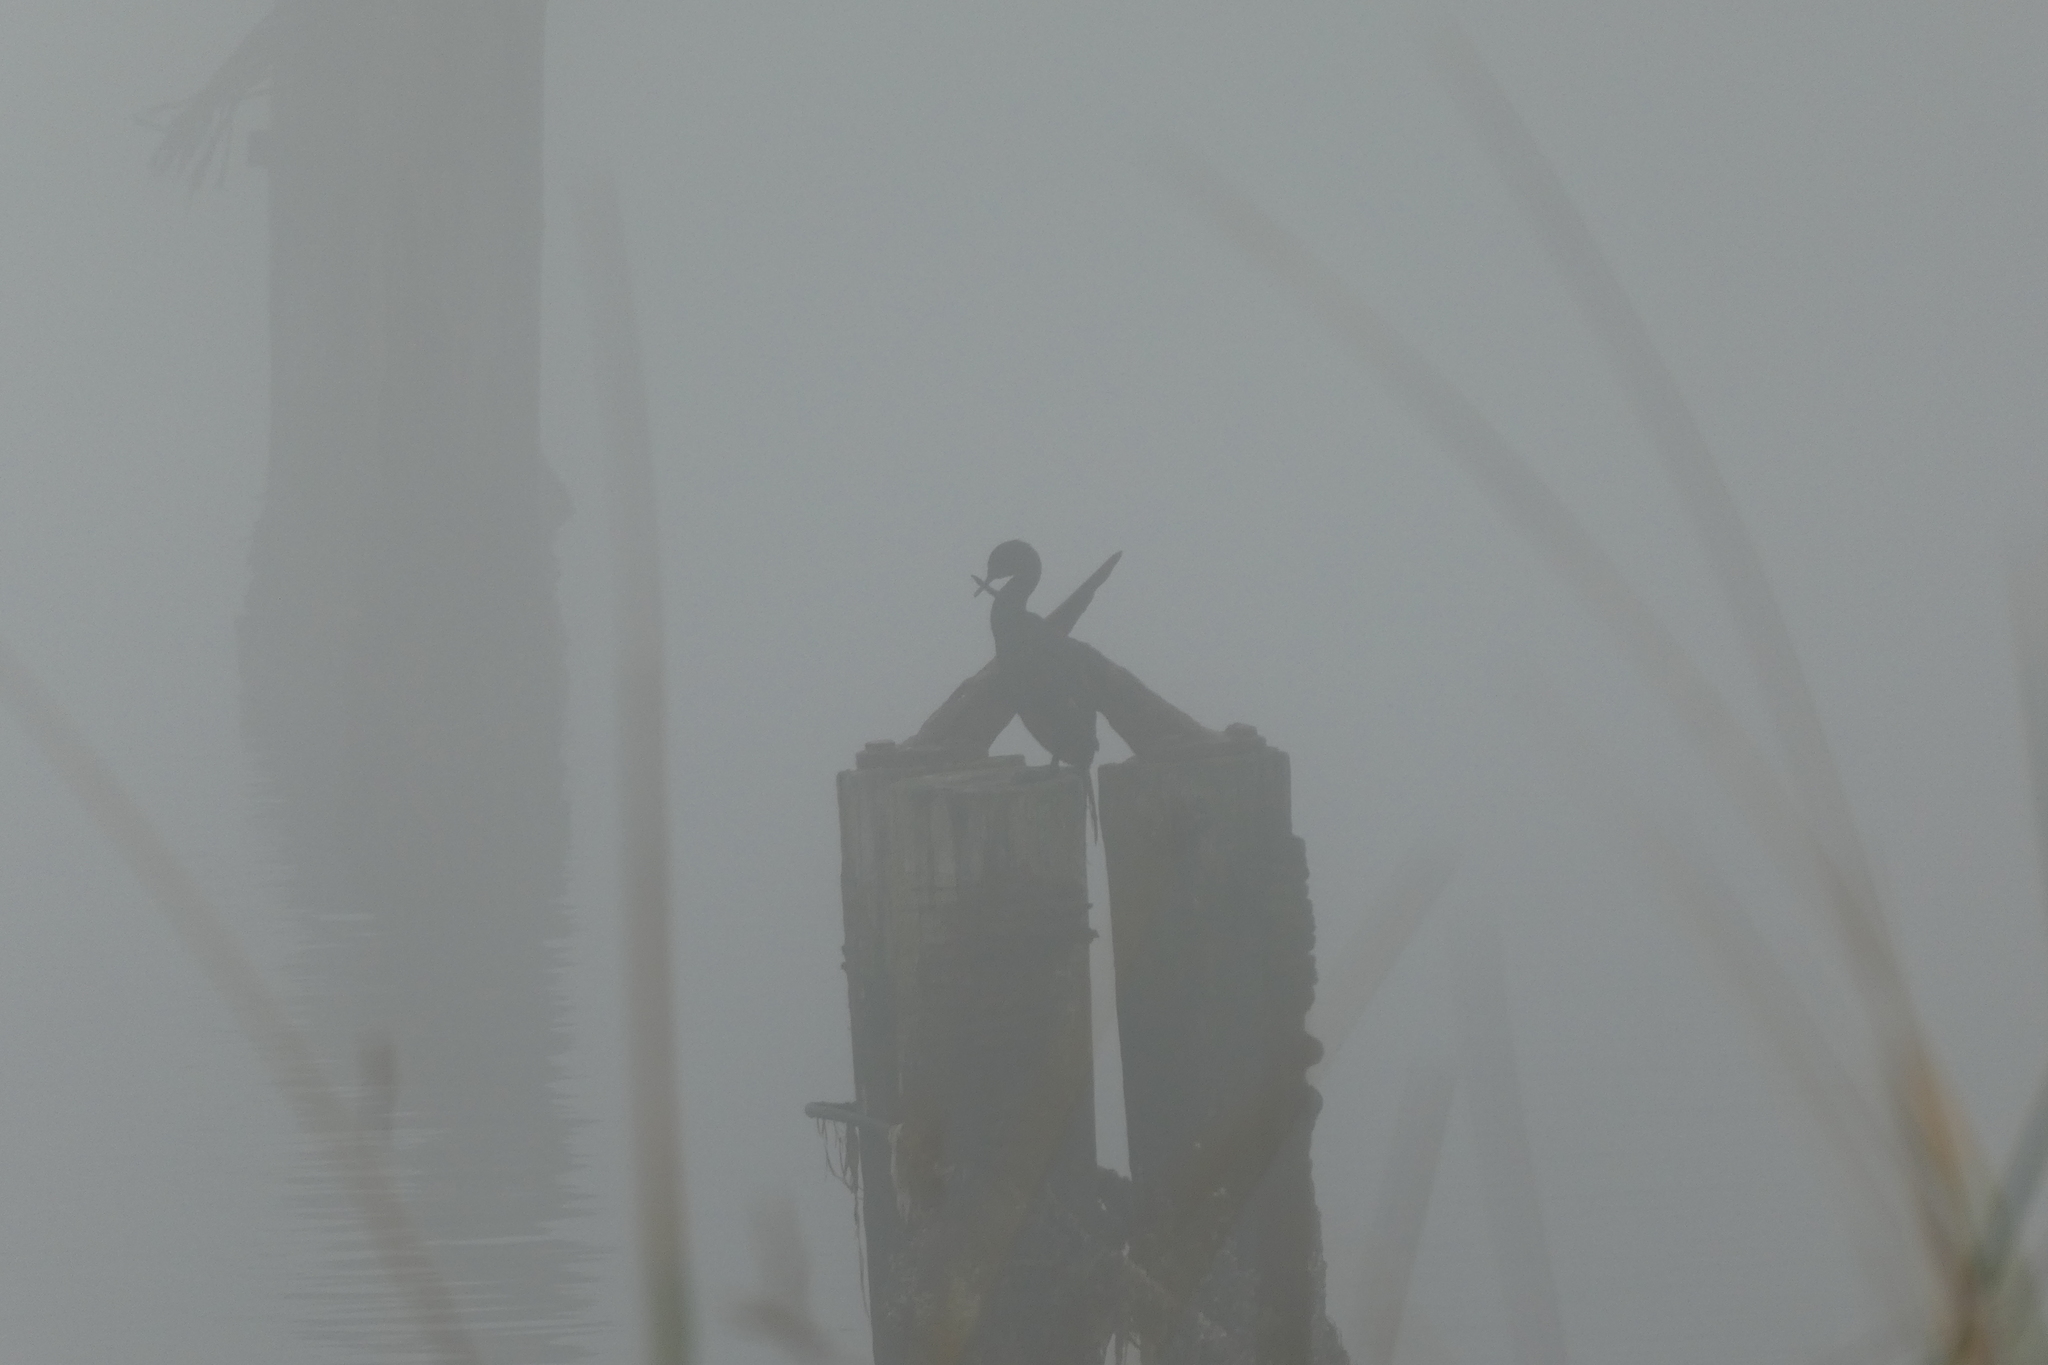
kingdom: Animalia
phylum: Chordata
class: Aves
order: Suliformes
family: Phalacrocoracidae
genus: Phalacrocorax
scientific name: Phalacrocorax pelagicus
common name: Pelagic cormorant
